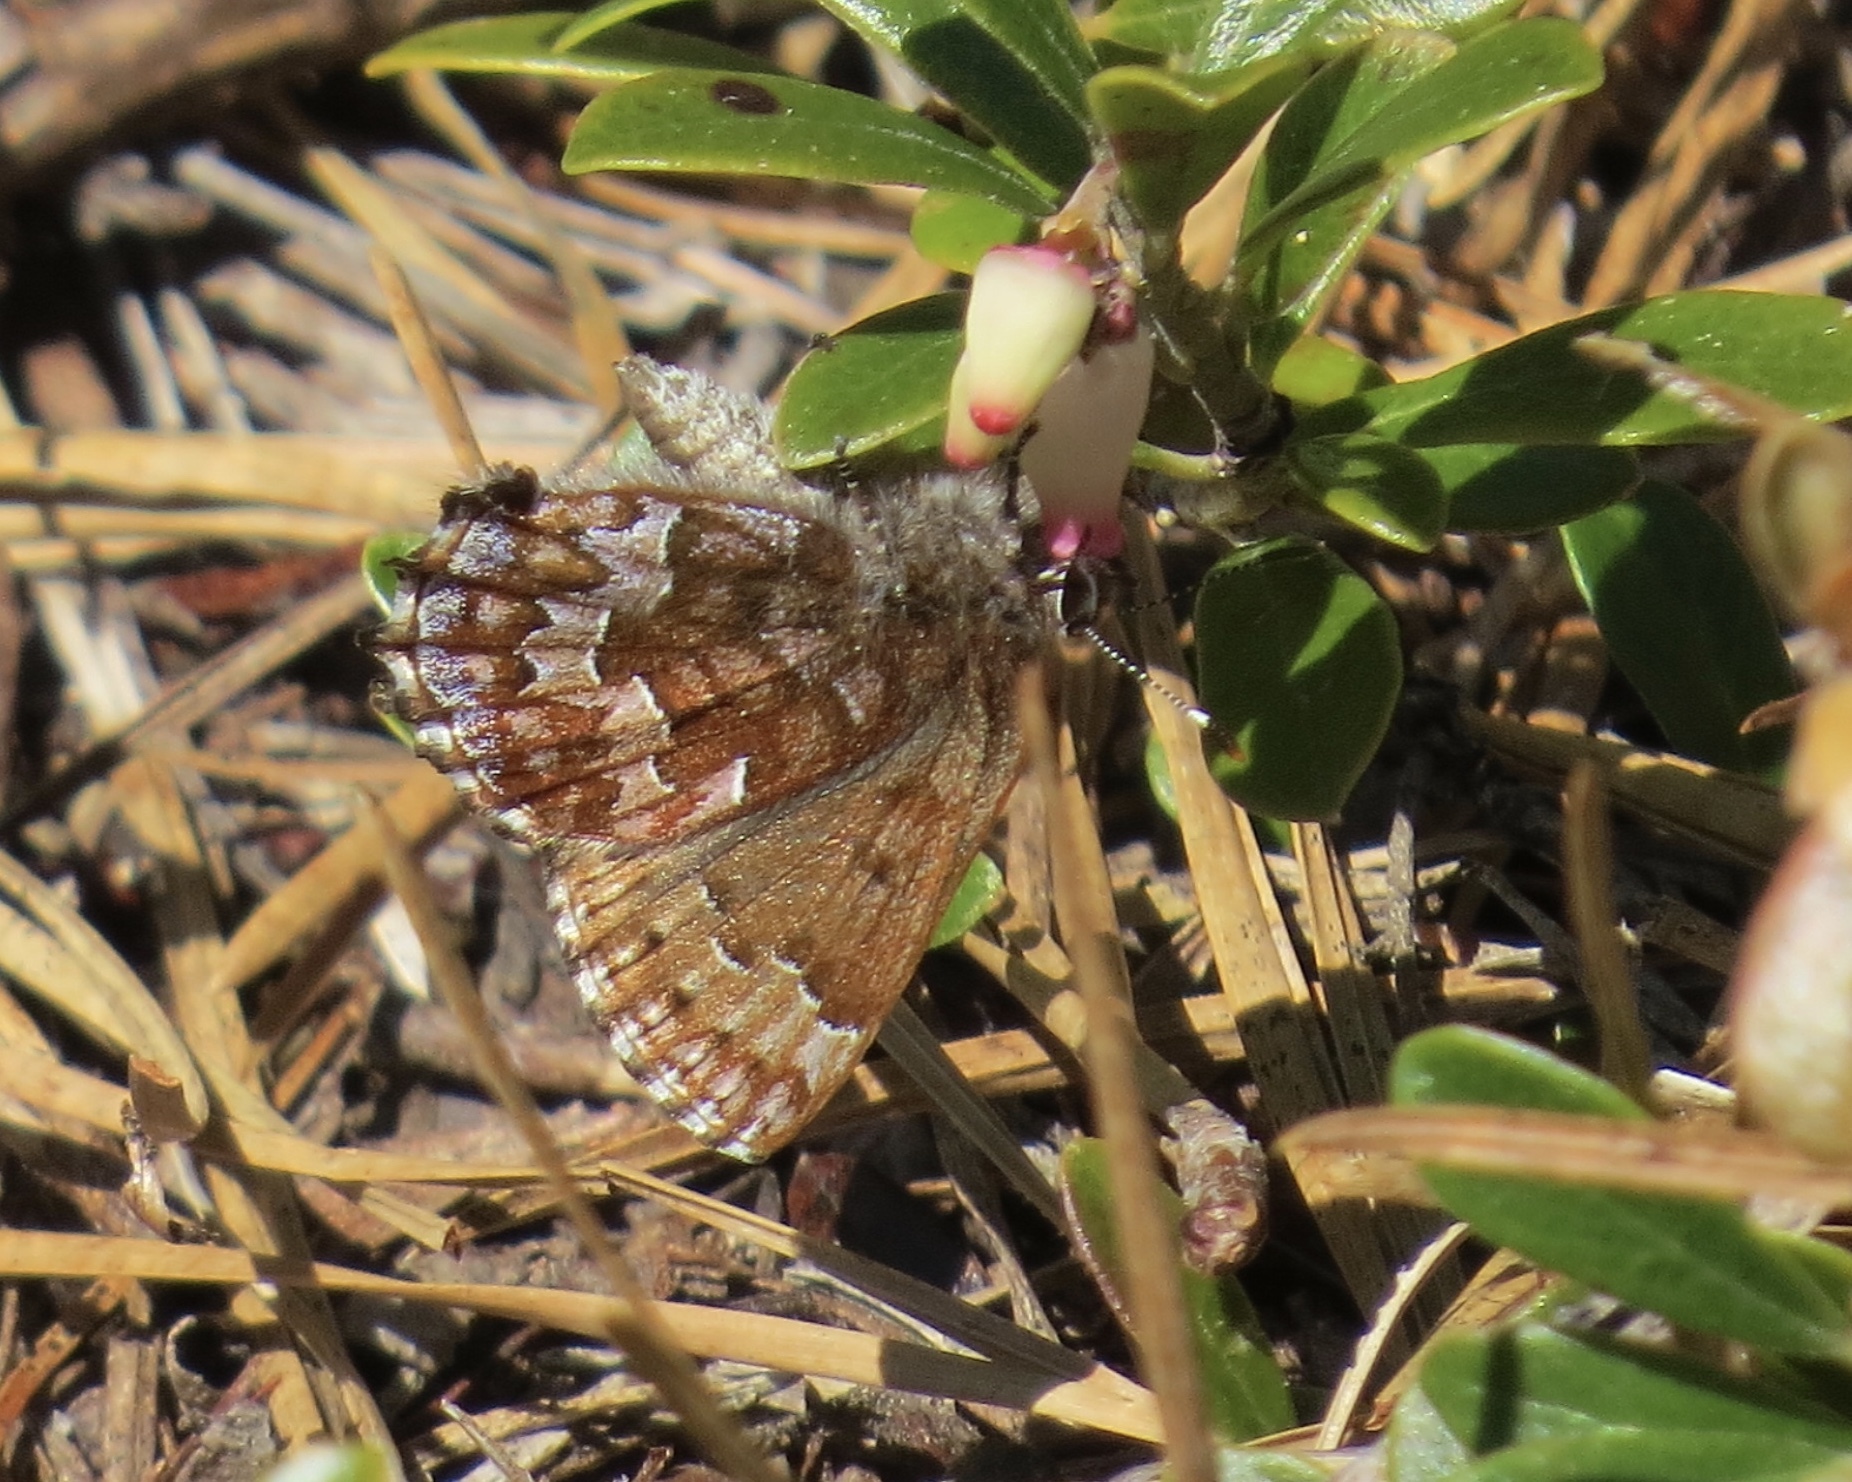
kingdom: Animalia
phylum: Arthropoda
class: Insecta
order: Lepidoptera
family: Lycaenidae
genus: Incisalia
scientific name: Incisalia niphon
